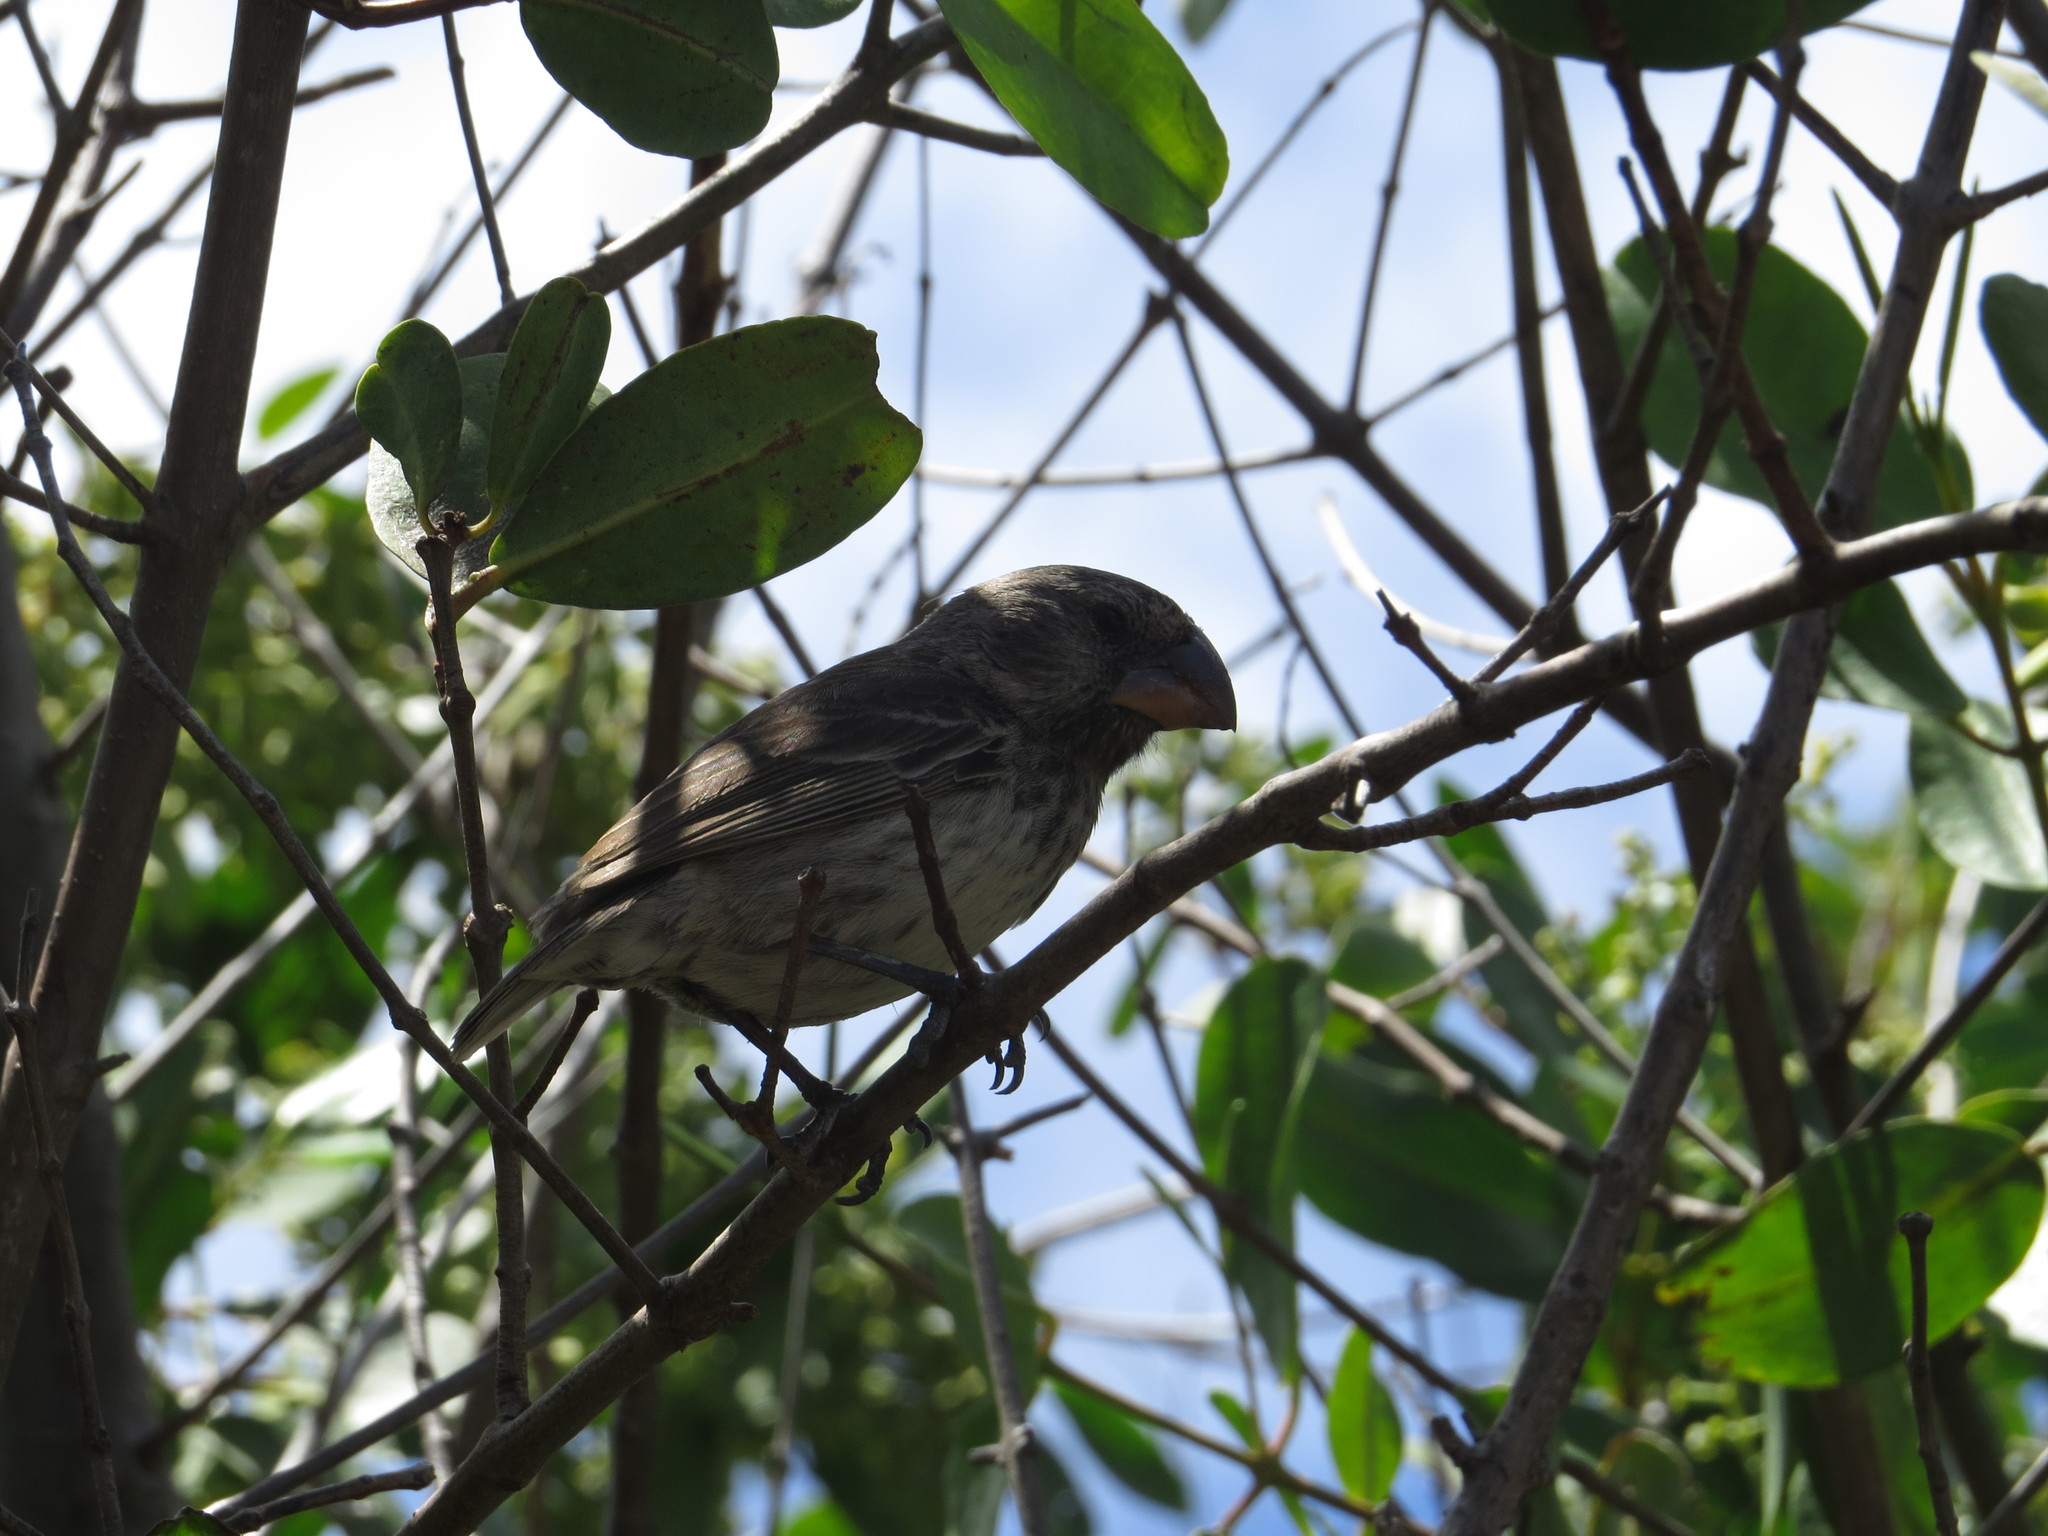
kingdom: Animalia
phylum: Chordata
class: Aves
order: Passeriformes
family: Thraupidae
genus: Geospiza
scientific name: Geospiza magnirostris
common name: Large ground-finch
